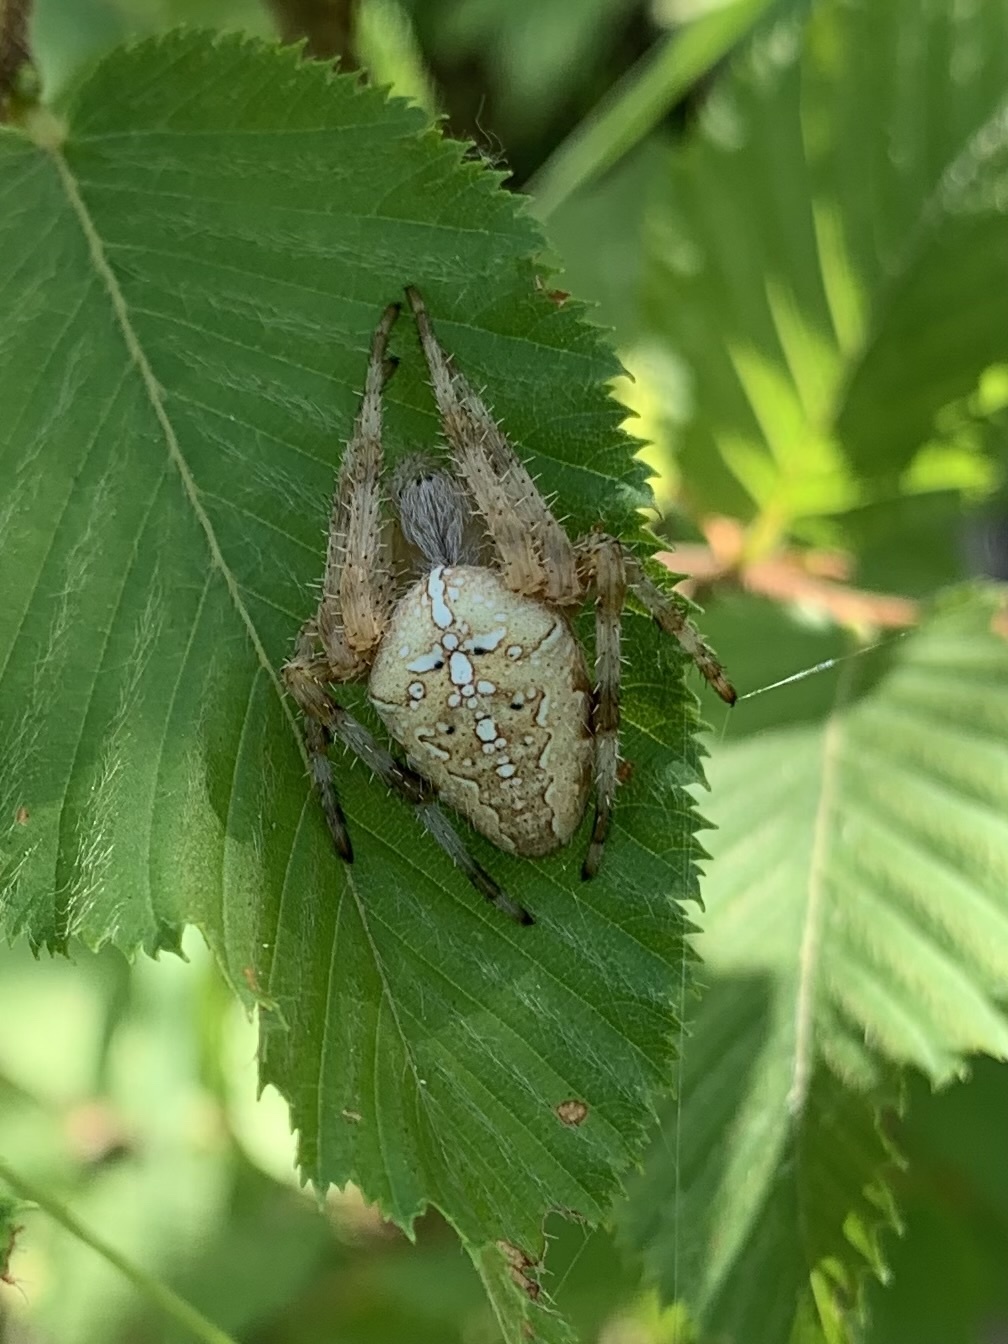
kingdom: Animalia
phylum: Arthropoda
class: Arachnida
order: Araneae
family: Araneidae
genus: Araneus
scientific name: Araneus diadematus
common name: Cross orbweaver
